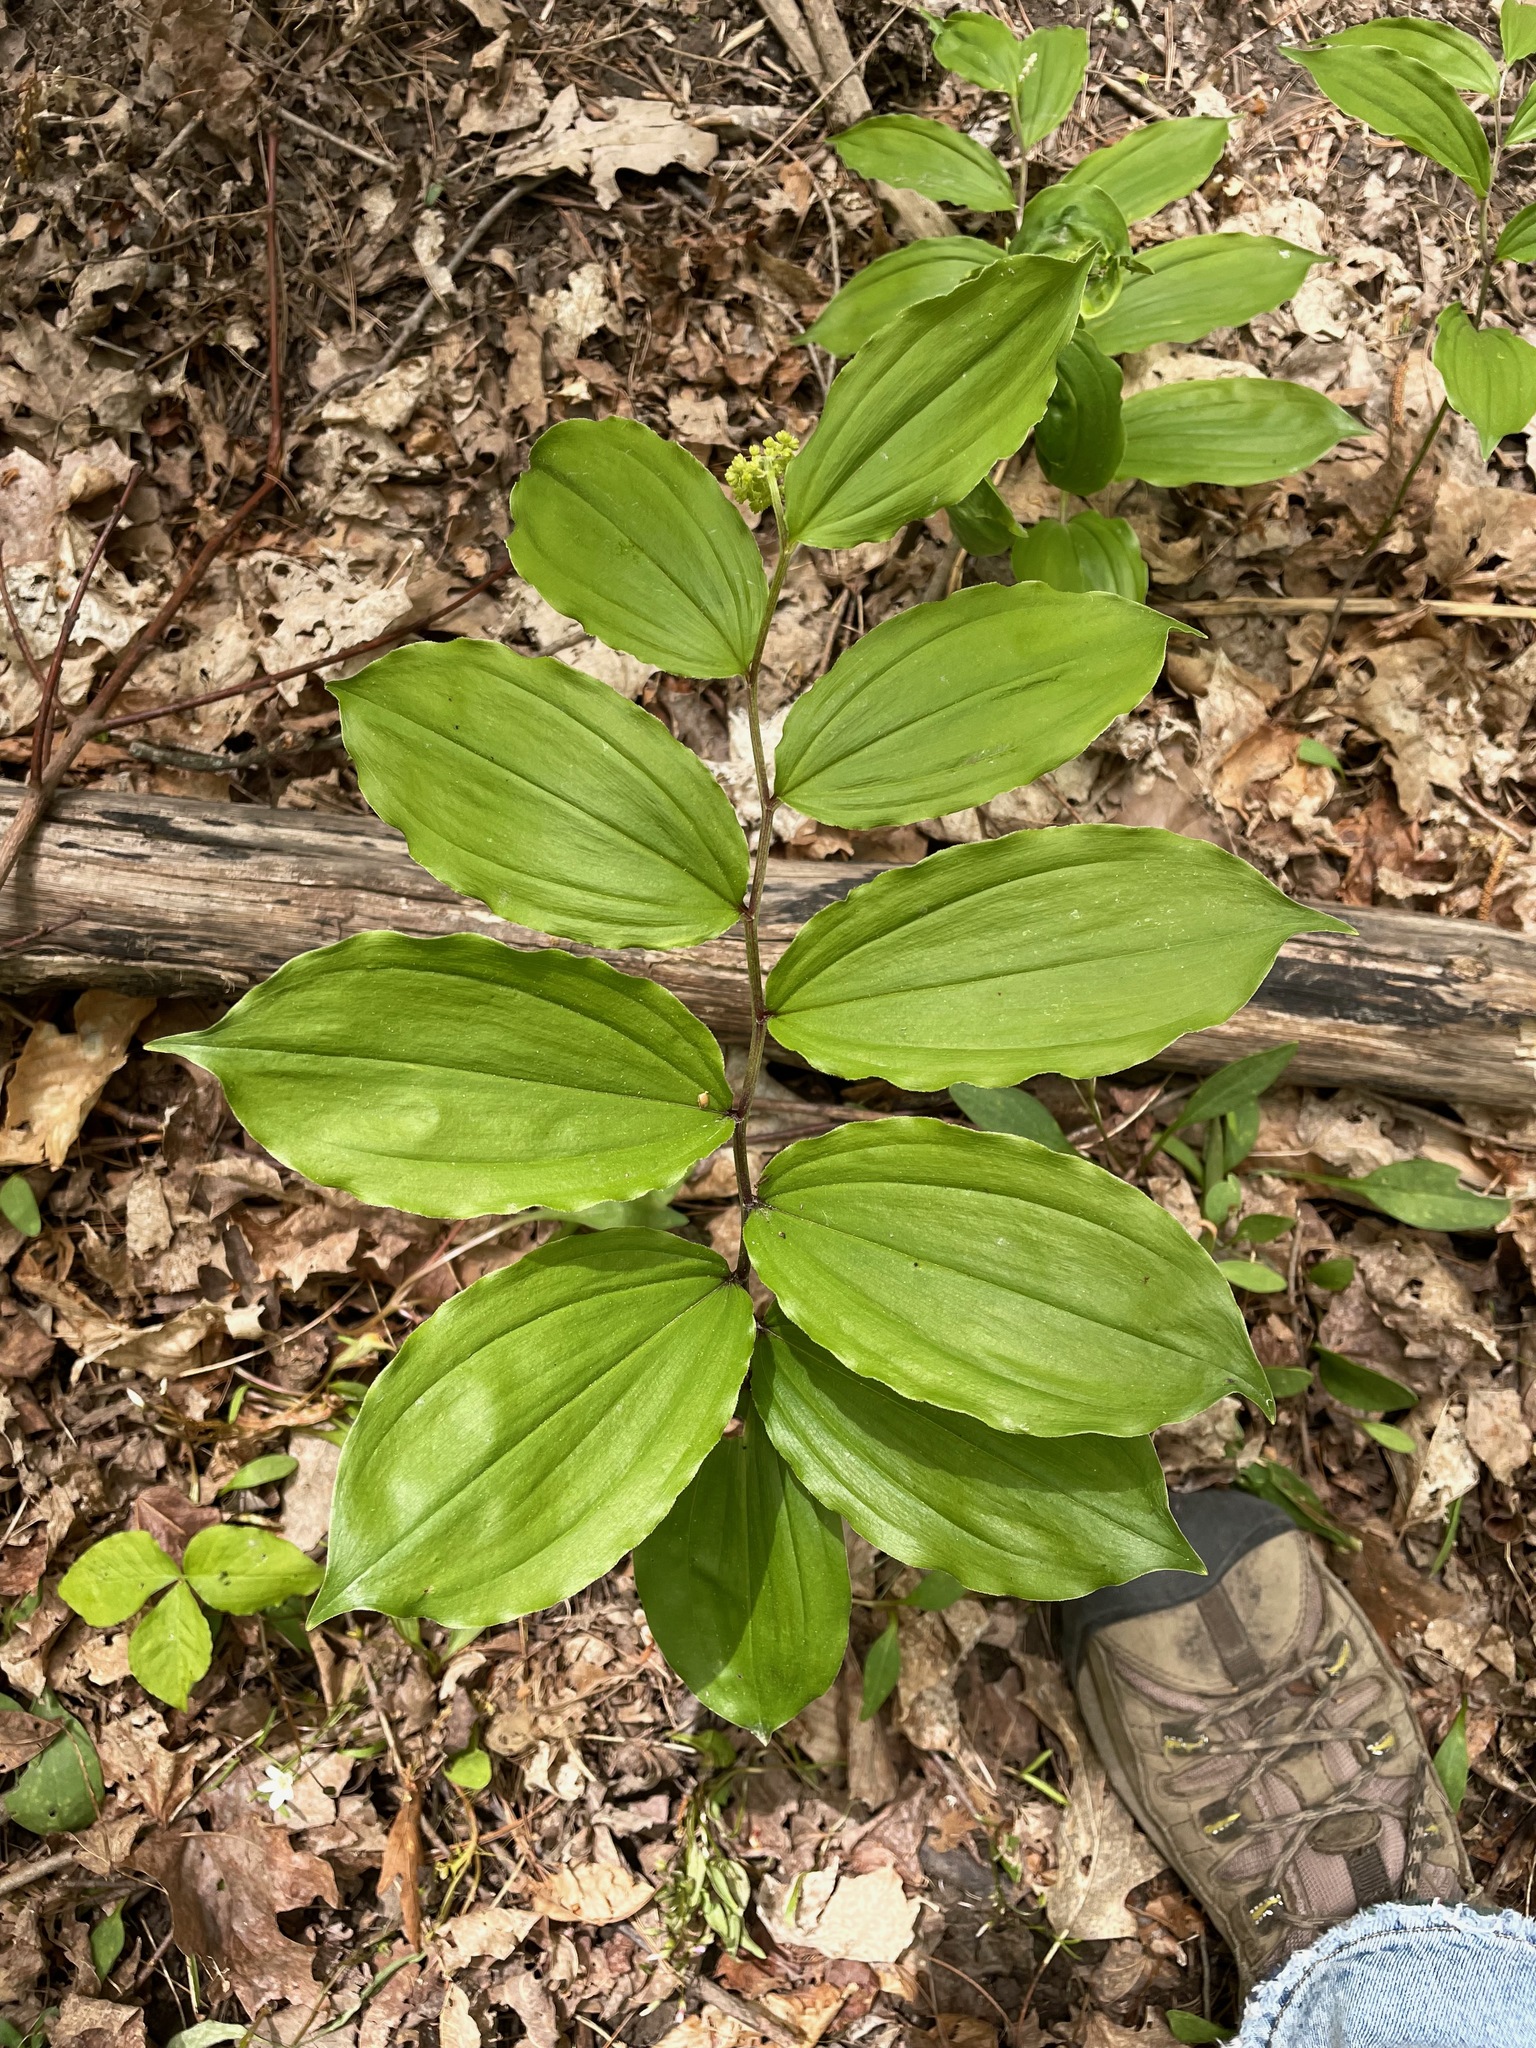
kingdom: Plantae
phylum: Tracheophyta
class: Liliopsida
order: Asparagales
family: Asparagaceae
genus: Maianthemum
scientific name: Maianthemum racemosum
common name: False spikenard
